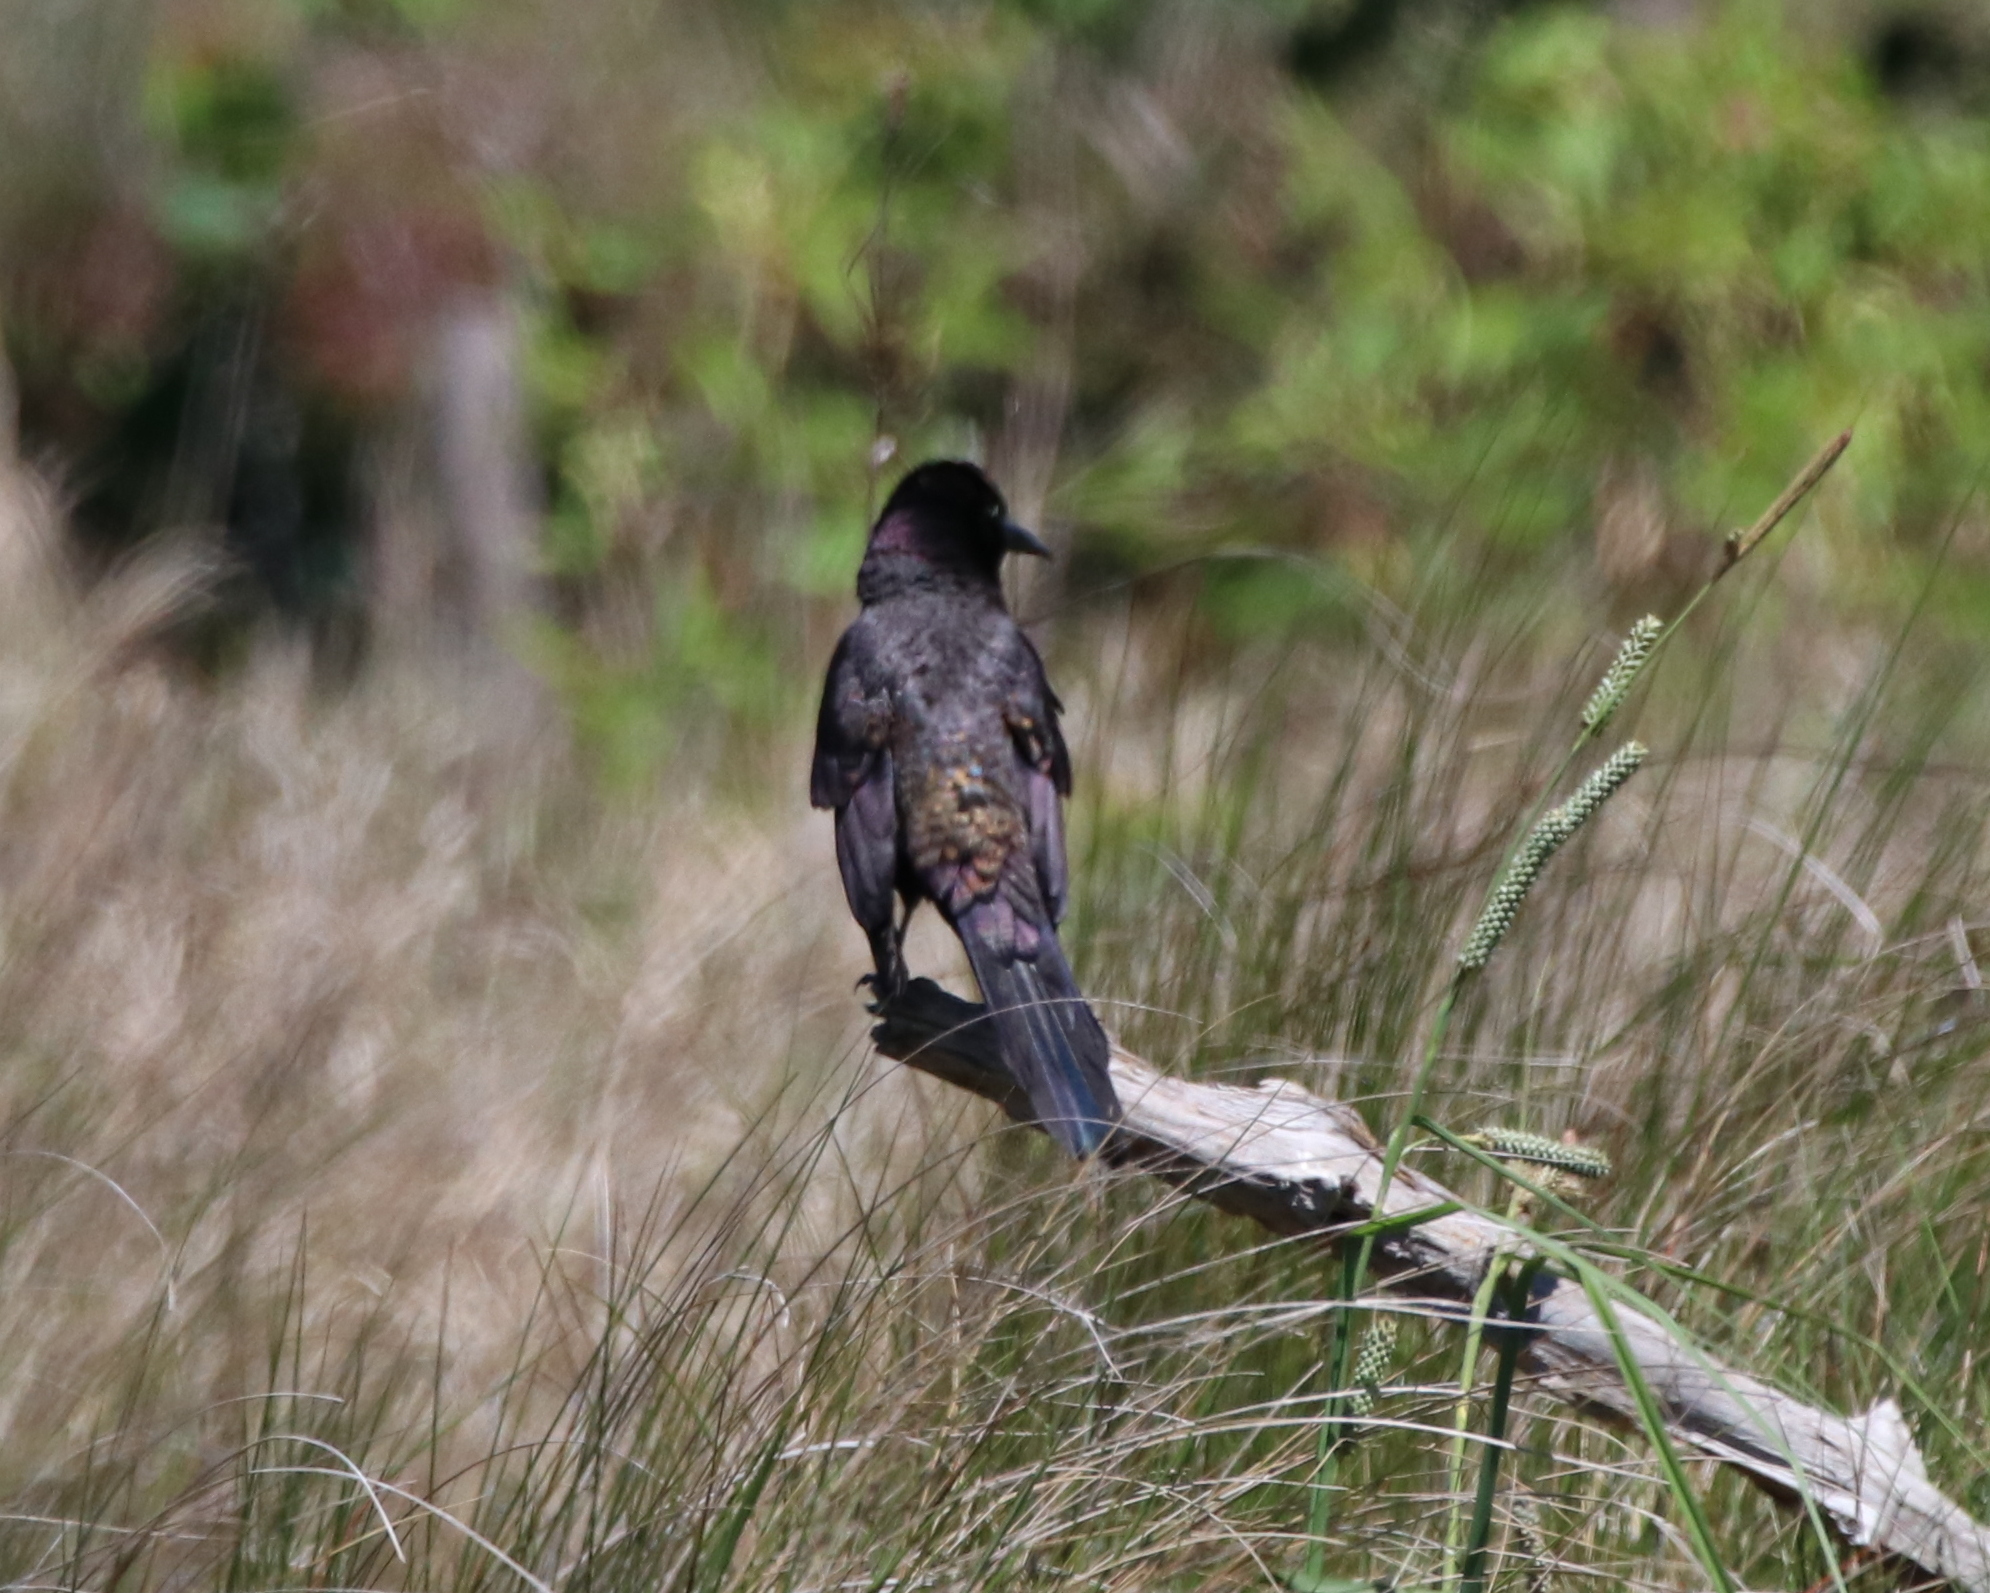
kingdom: Animalia
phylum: Chordata
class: Aves
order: Passeriformes
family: Icteridae
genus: Quiscalus
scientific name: Quiscalus quiscula
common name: Common grackle
